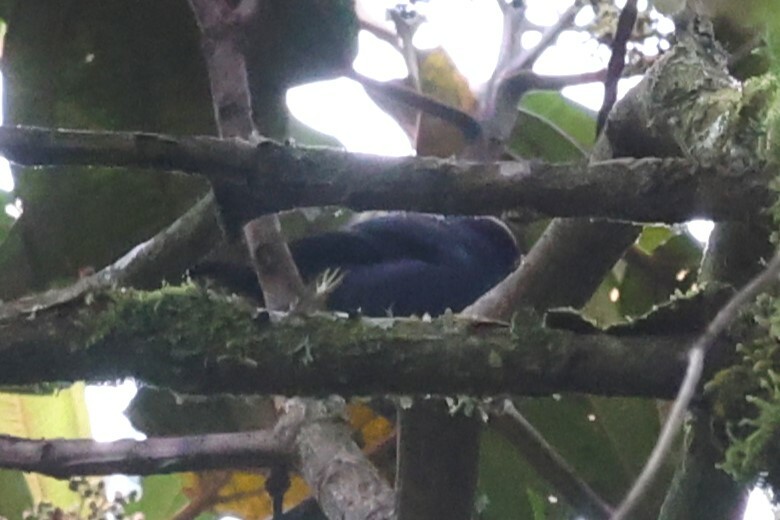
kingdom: Animalia
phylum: Chordata
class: Aves
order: Passeriformes
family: Thraupidae
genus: Tangara
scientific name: Tangara vassorii
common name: Blue-and-black tanager
